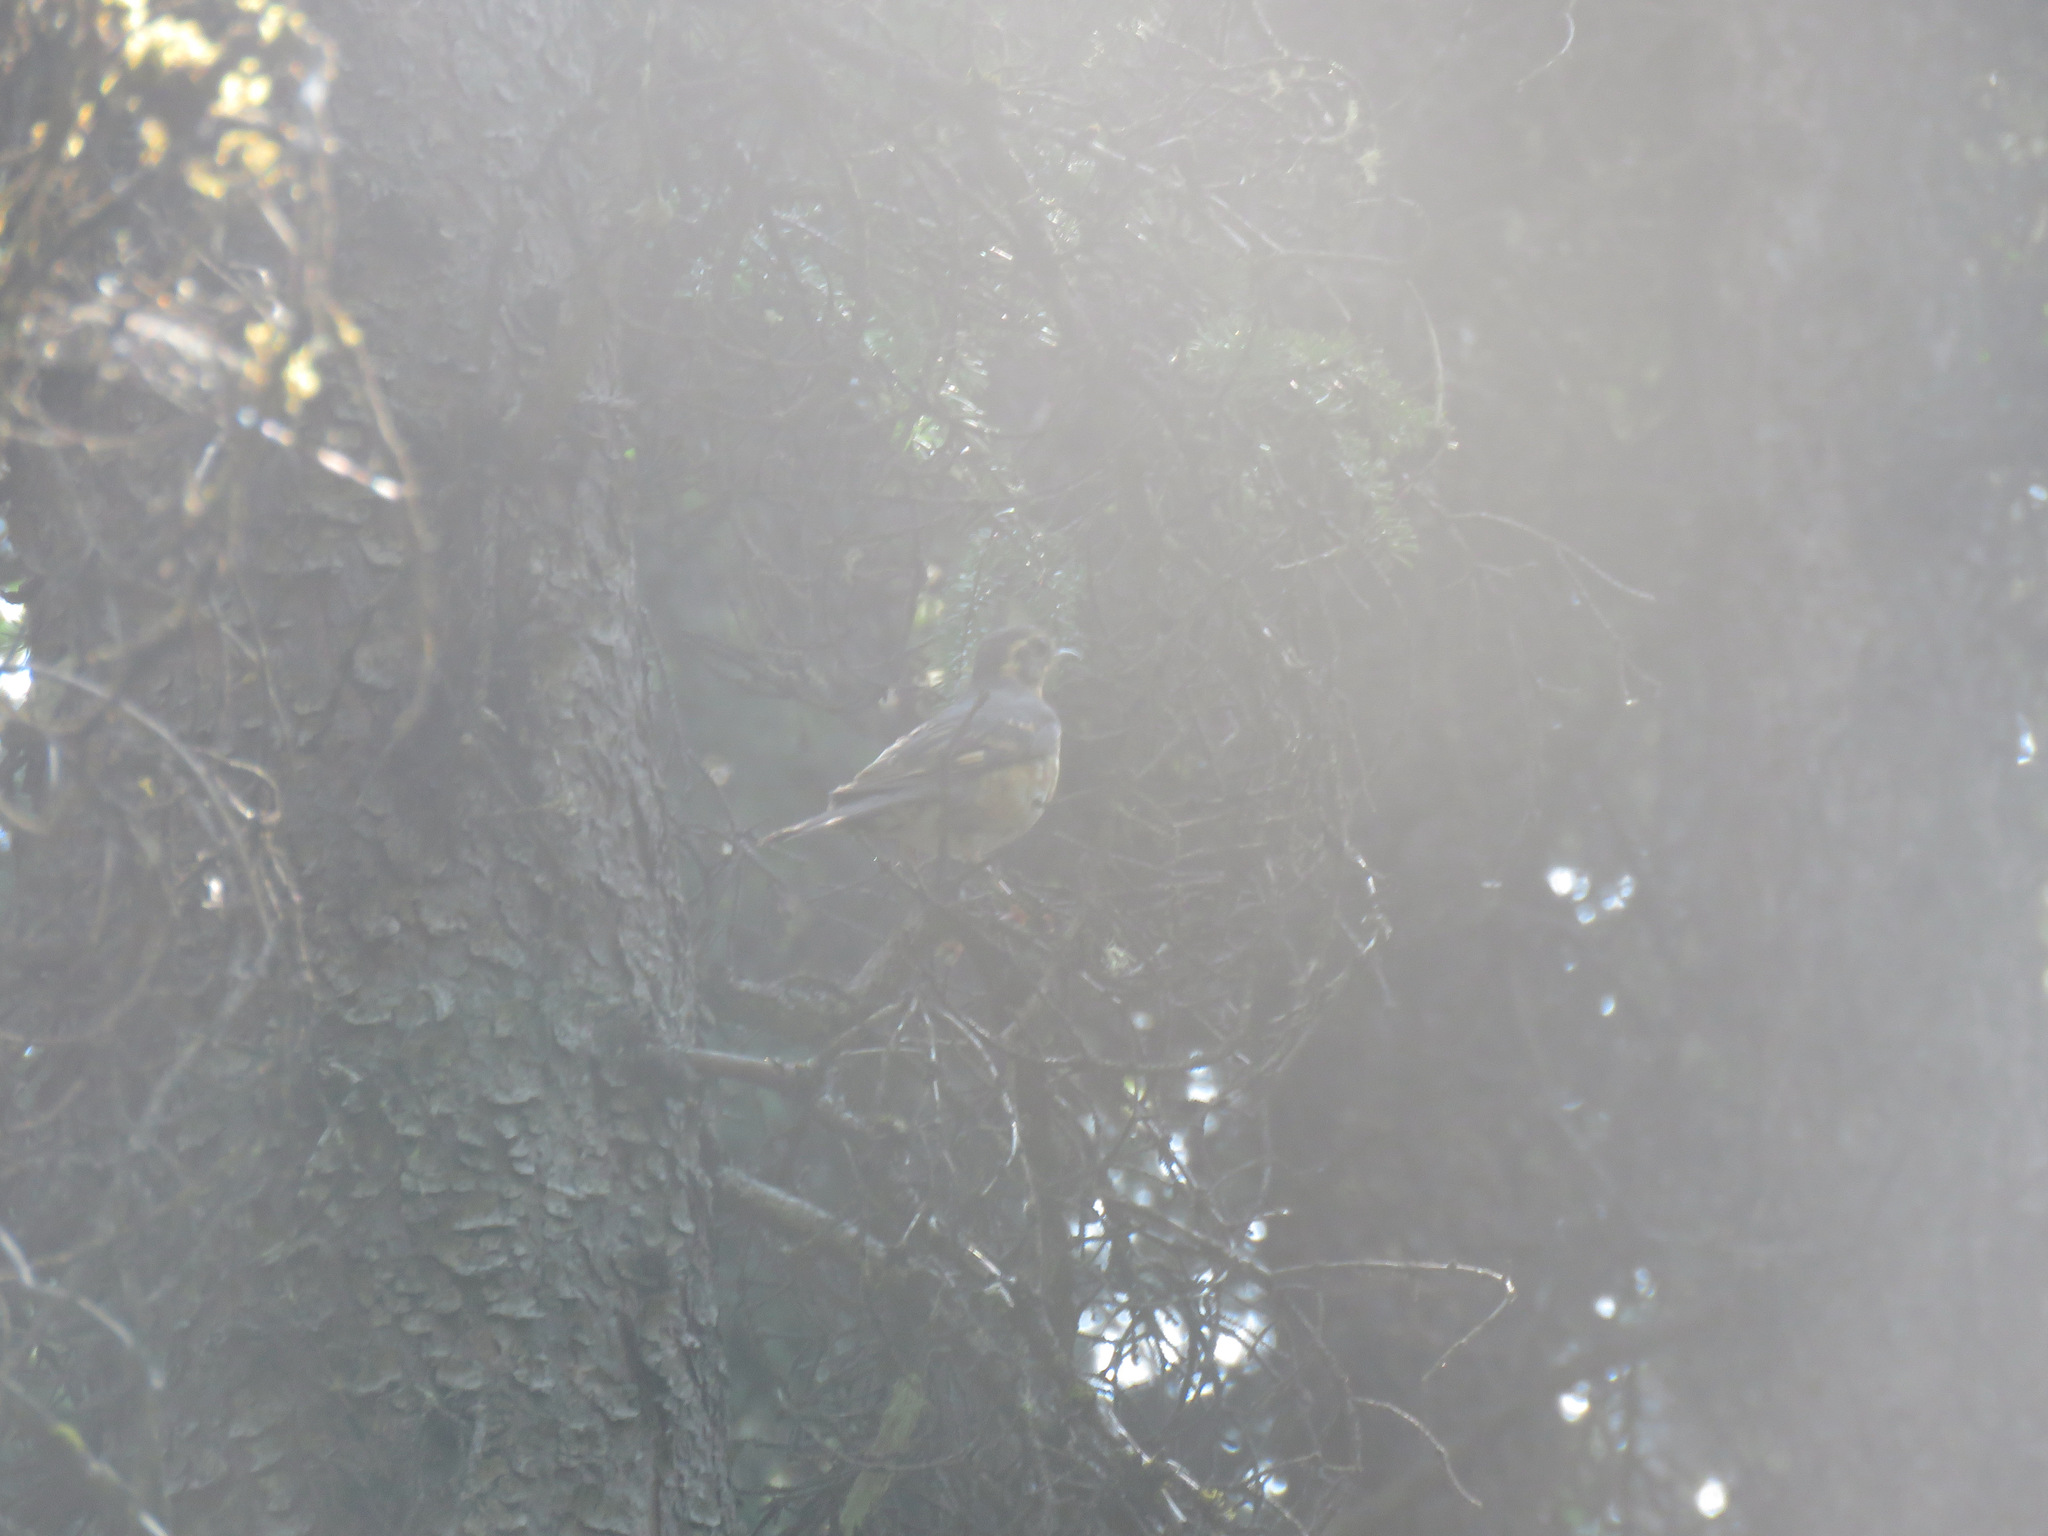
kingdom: Animalia
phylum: Chordata
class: Aves
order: Passeriformes
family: Turdidae
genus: Ixoreus
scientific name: Ixoreus naevius
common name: Varied thrush
